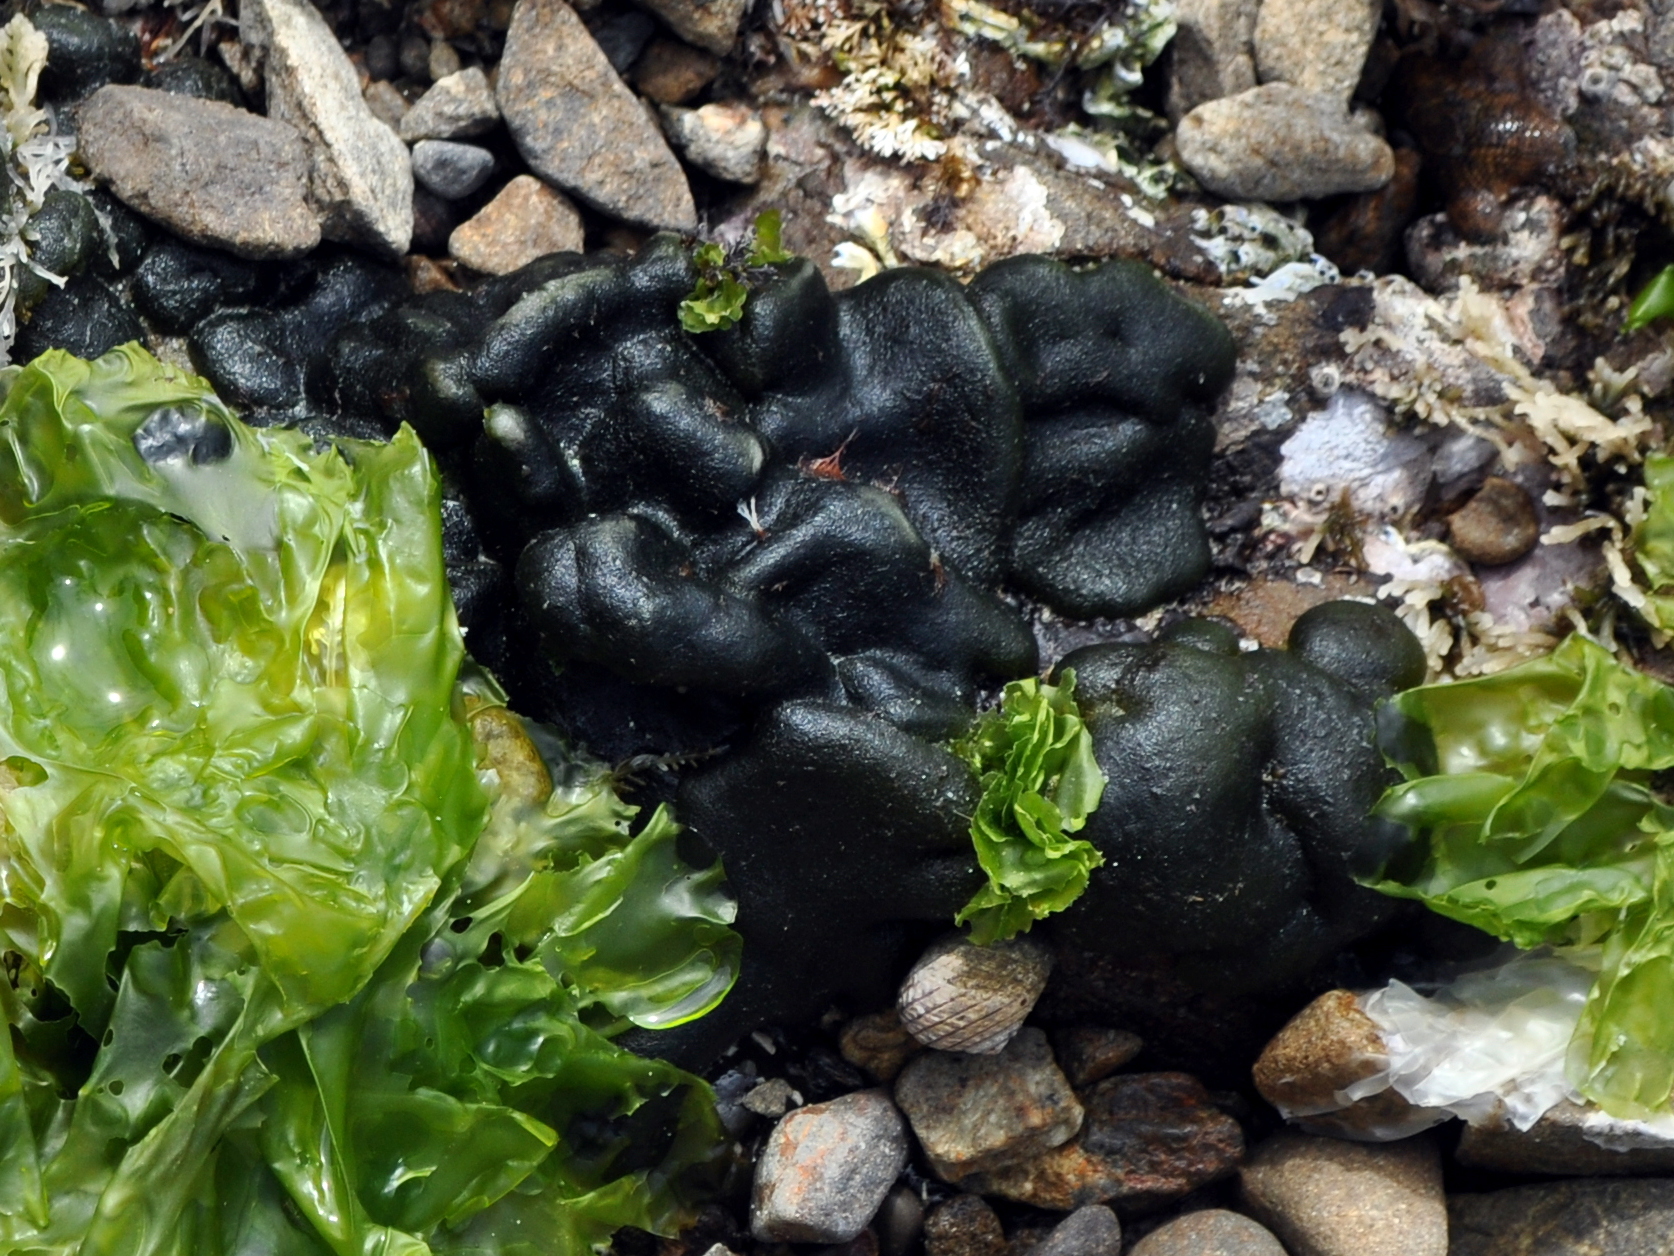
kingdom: Plantae
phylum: Chlorophyta
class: Ulvophyceae
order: Bryopsidales
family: Codiaceae
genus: Codium
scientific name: Codium convolutum
